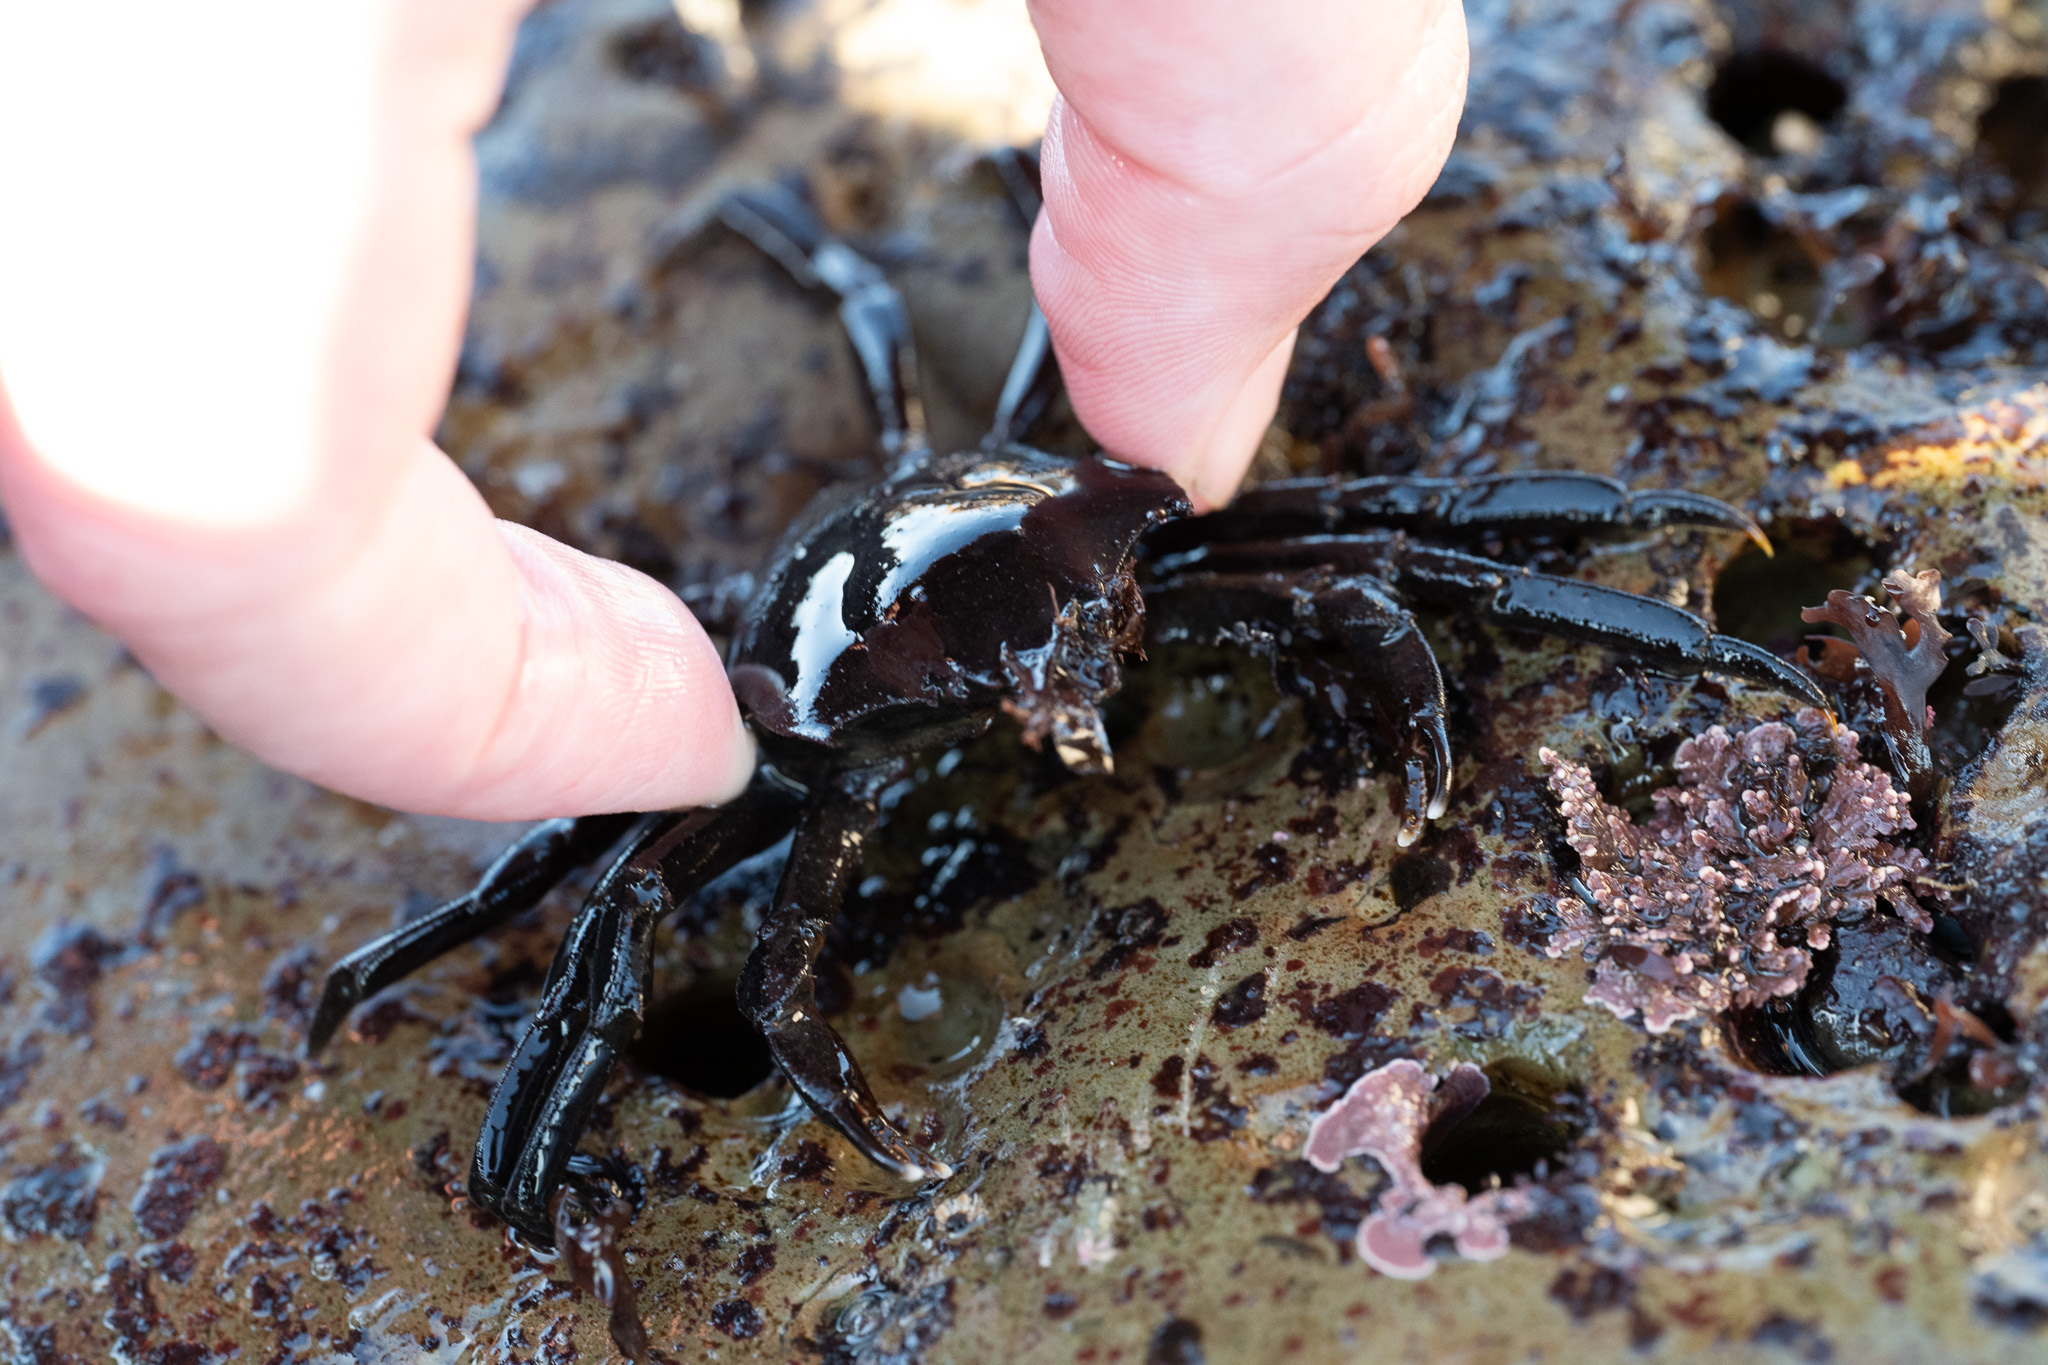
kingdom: Animalia
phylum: Arthropoda
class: Malacostraca
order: Decapoda
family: Epialtidae
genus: Pugettia
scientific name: Pugettia producta
